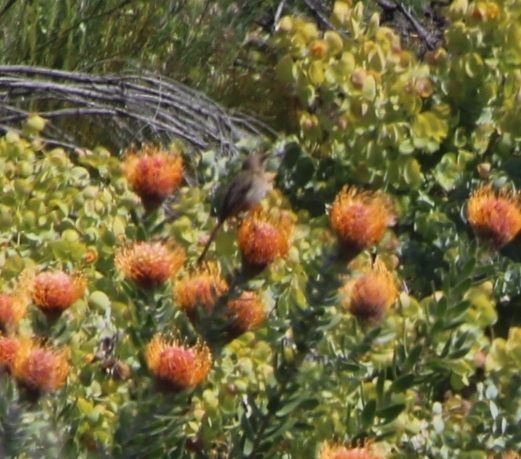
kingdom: Animalia
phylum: Chordata
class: Aves
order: Passeriformes
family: Promeropidae
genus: Promerops
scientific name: Promerops cafer
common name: Cape sugarbird
